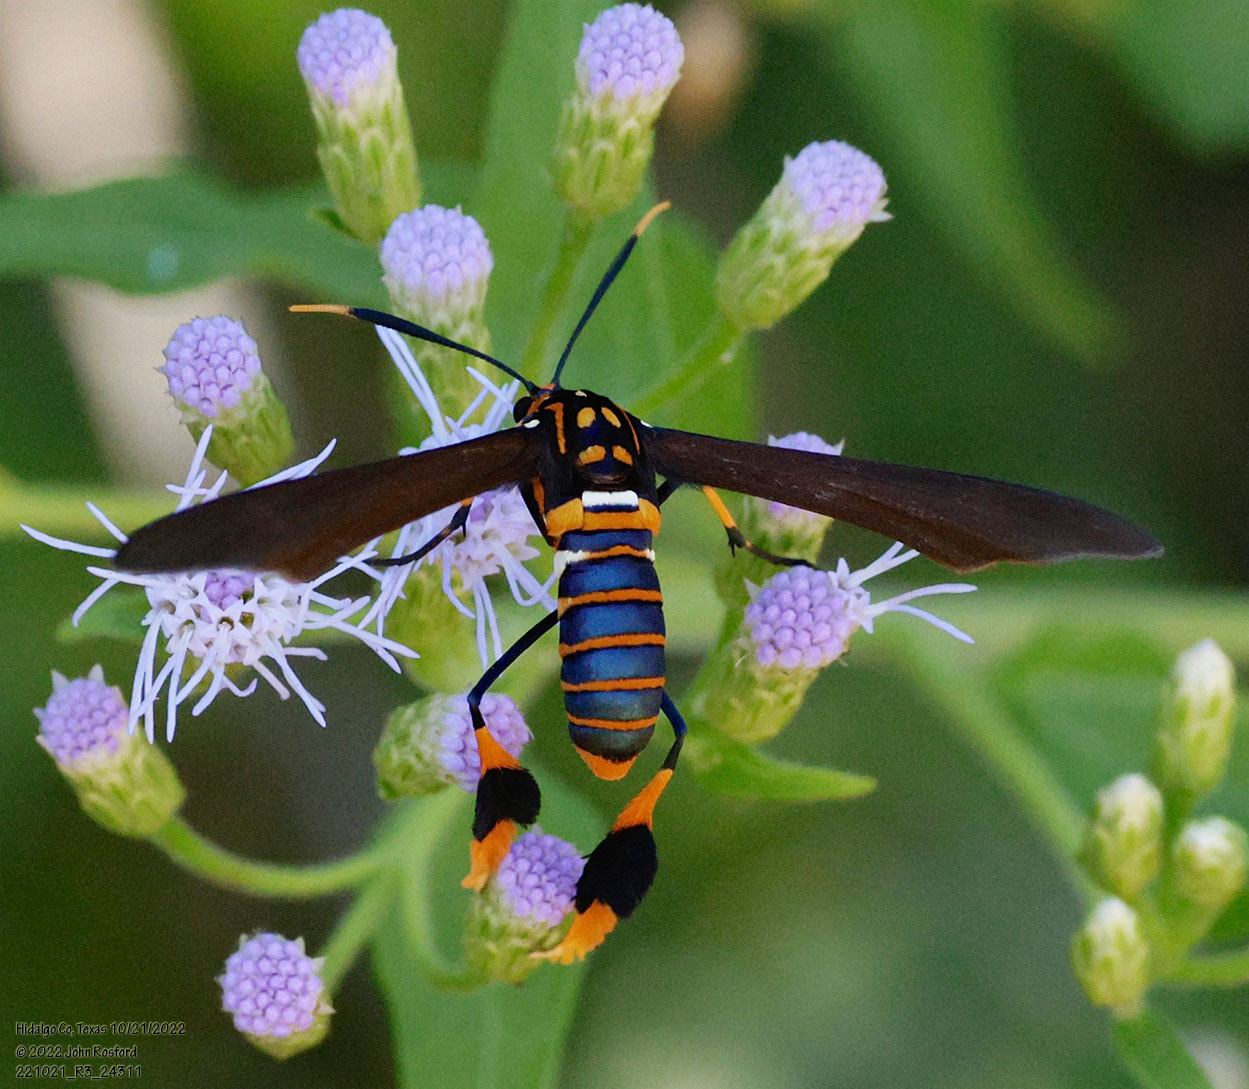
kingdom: Animalia
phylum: Arthropoda
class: Insecta
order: Lepidoptera
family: Erebidae
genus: Horama
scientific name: Horama panthalon
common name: Texas wasp moth
